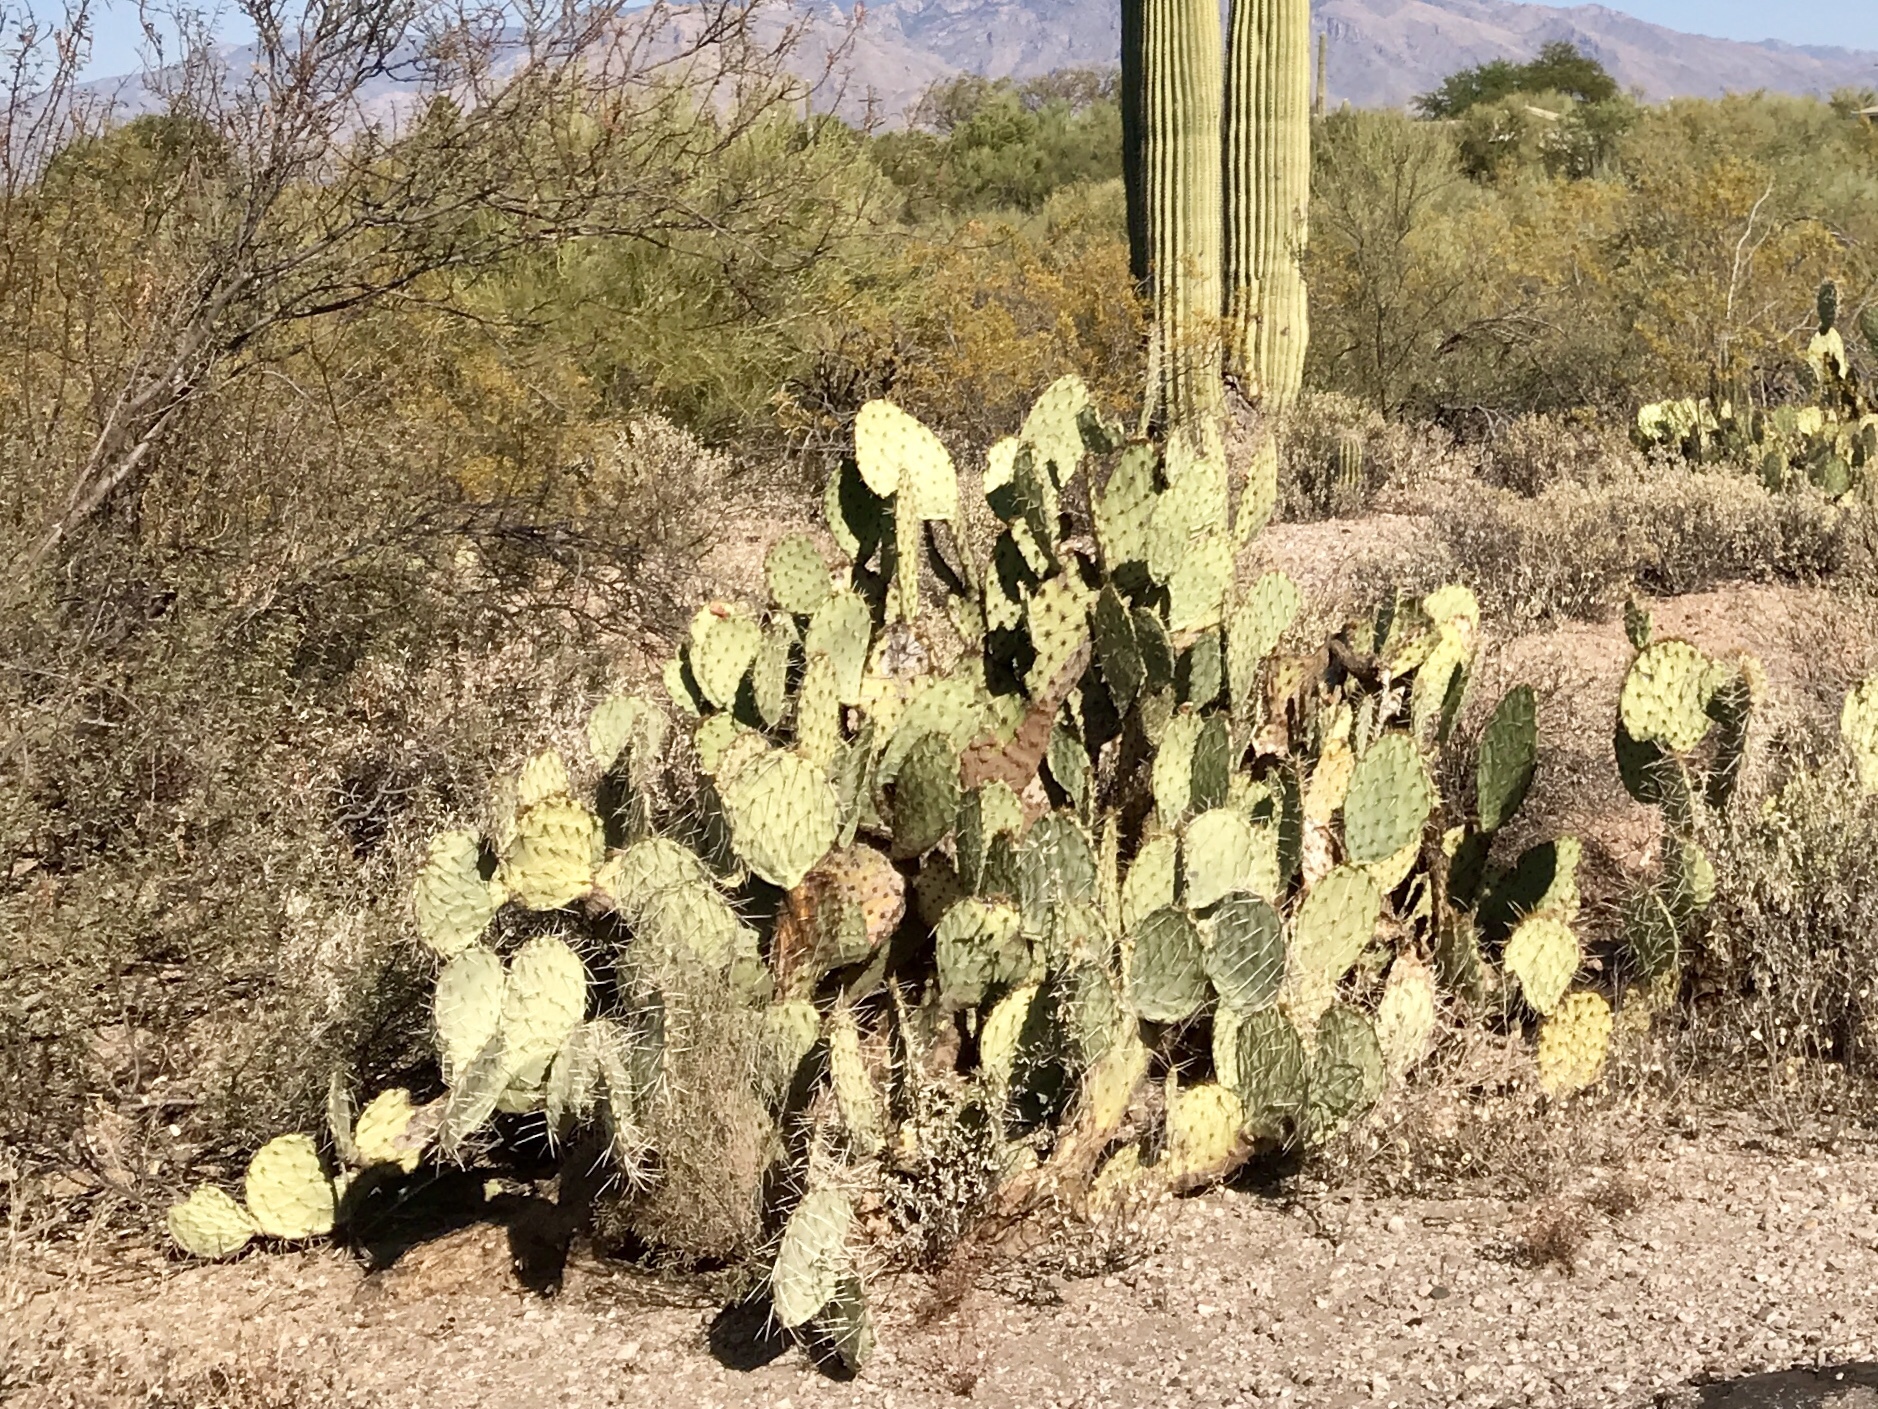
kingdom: Plantae
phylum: Tracheophyta
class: Magnoliopsida
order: Caryophyllales
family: Cactaceae
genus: Opuntia
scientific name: Opuntia engelmannii
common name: Cactus-apple
